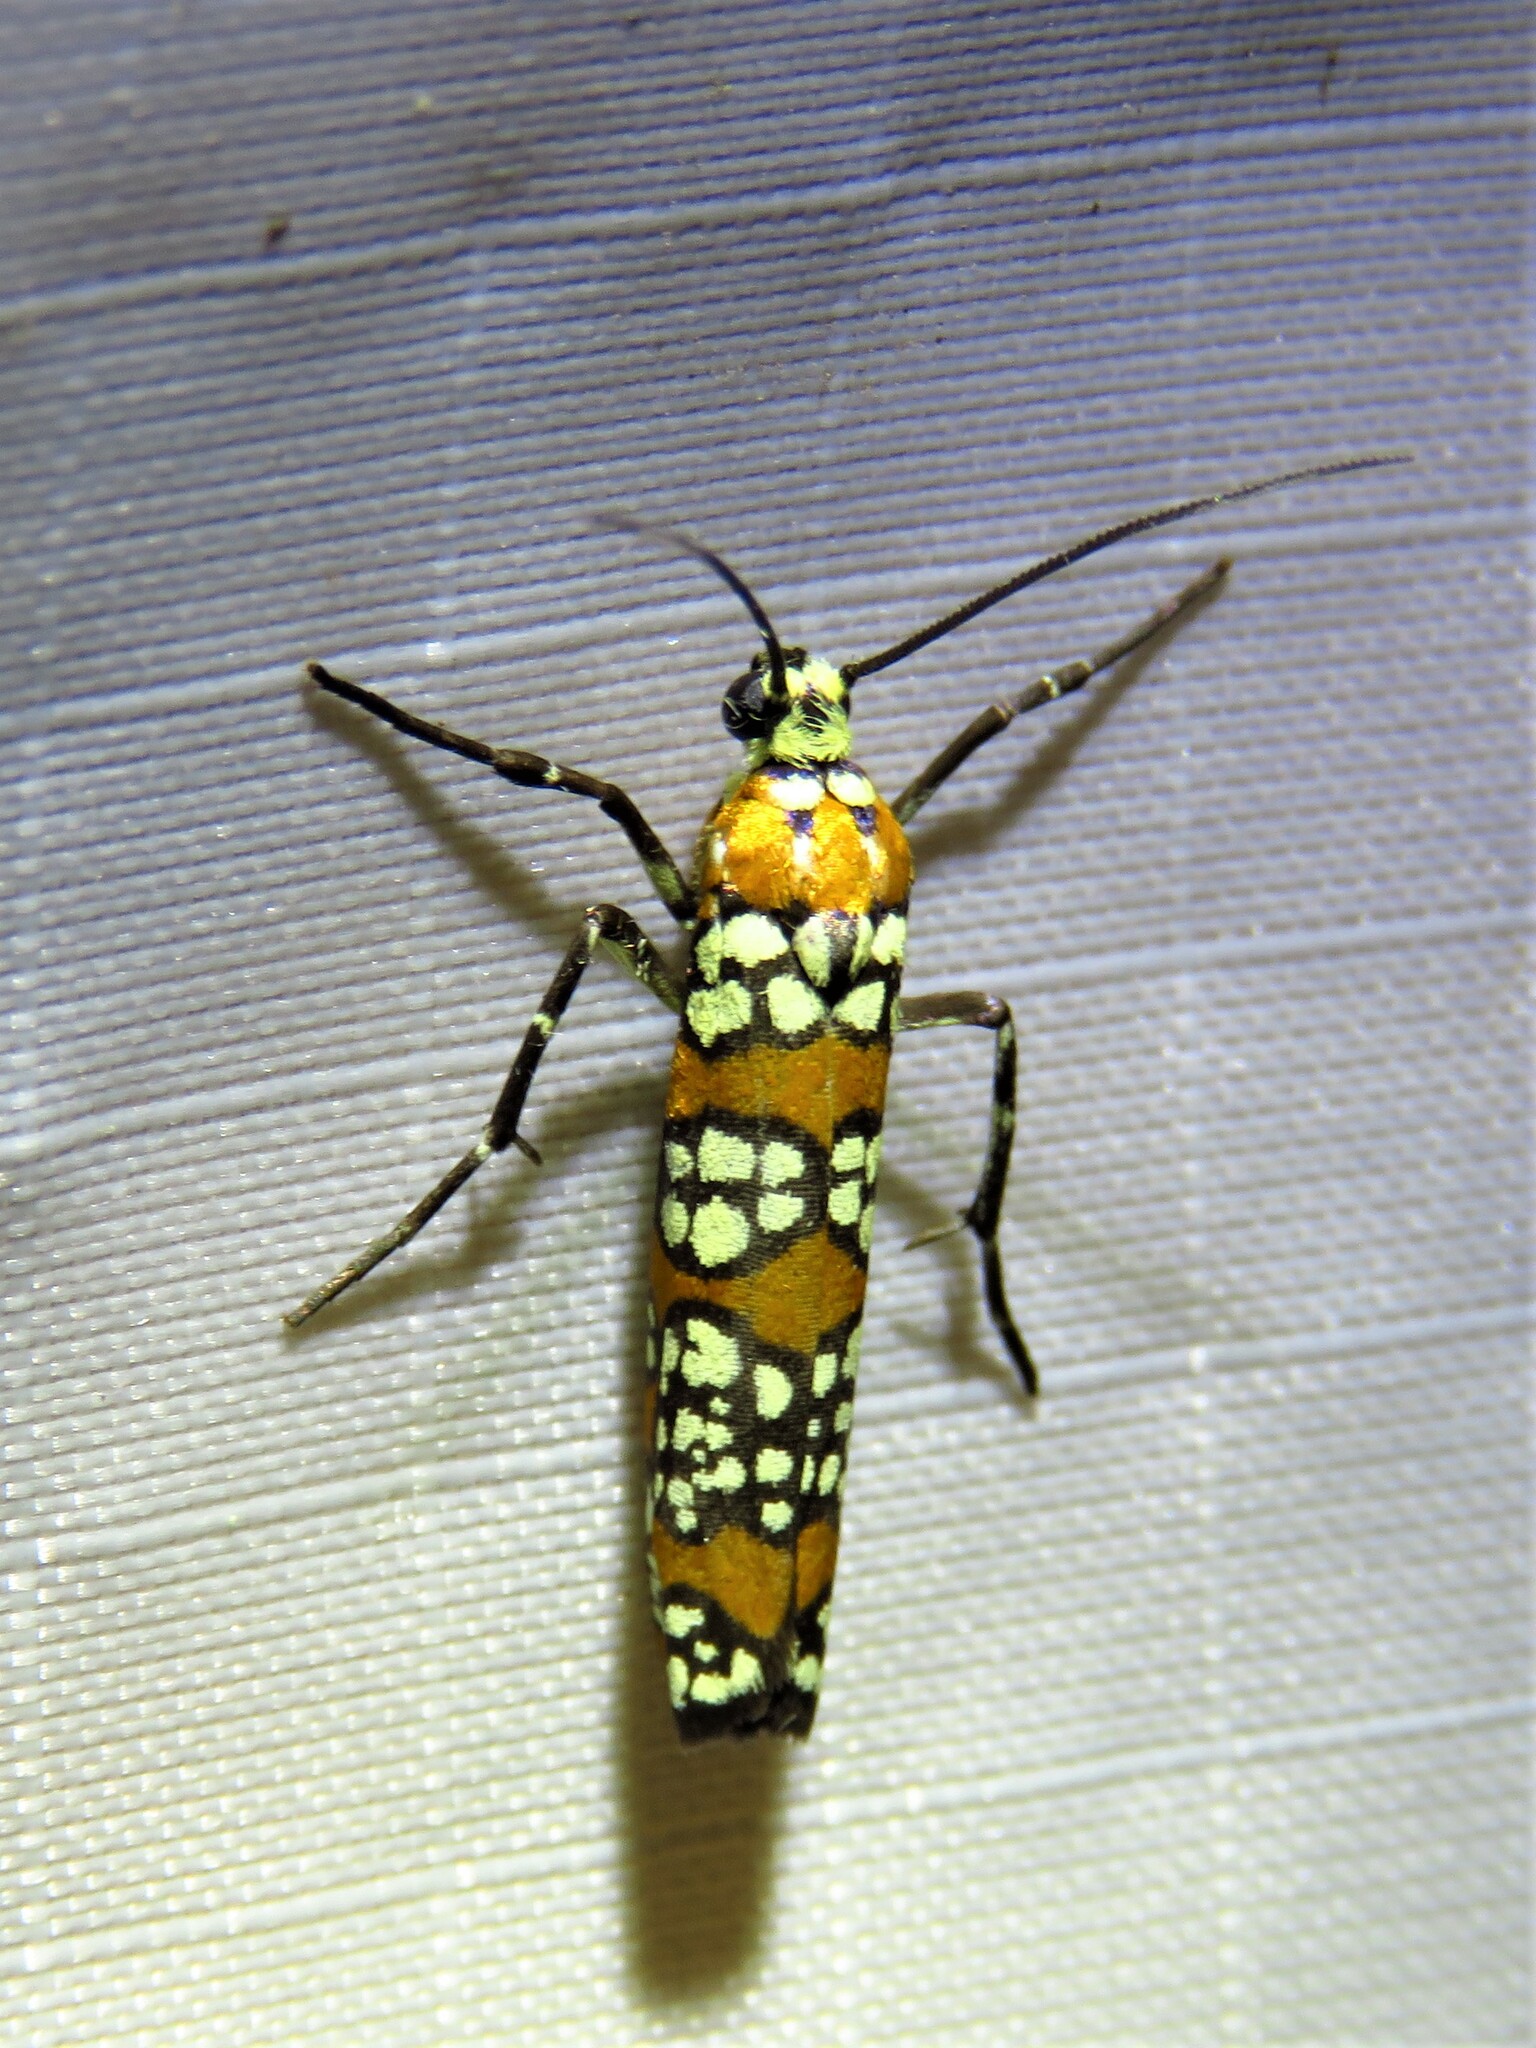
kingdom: Animalia
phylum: Arthropoda
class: Insecta
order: Lepidoptera
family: Attevidae
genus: Atteva
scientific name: Atteva punctella
